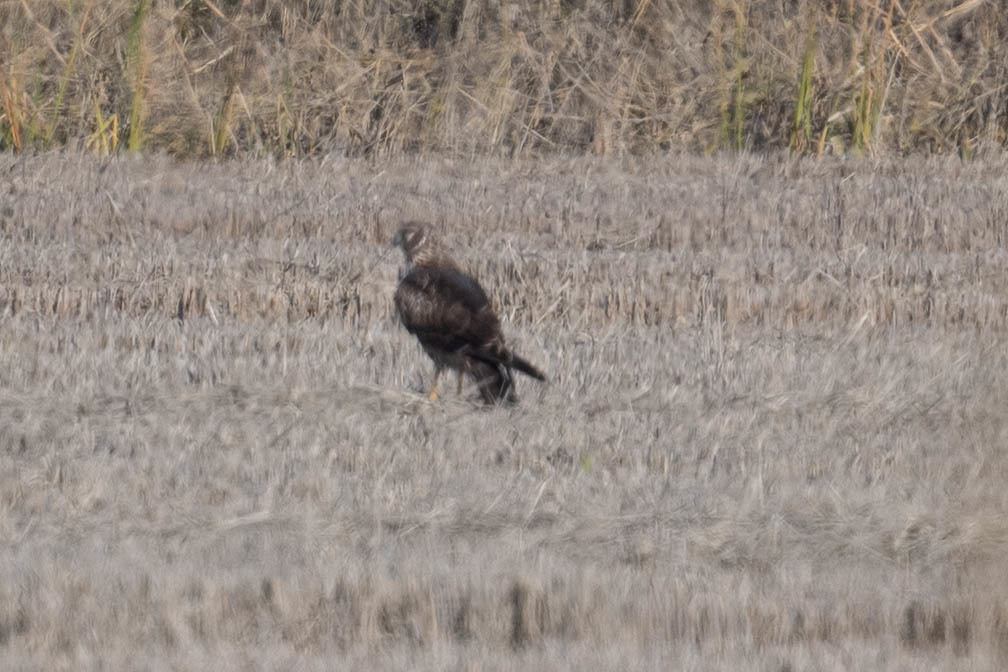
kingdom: Animalia
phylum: Chordata
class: Aves
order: Accipitriformes
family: Accipitridae
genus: Circus
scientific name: Circus cyaneus
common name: Hen harrier
